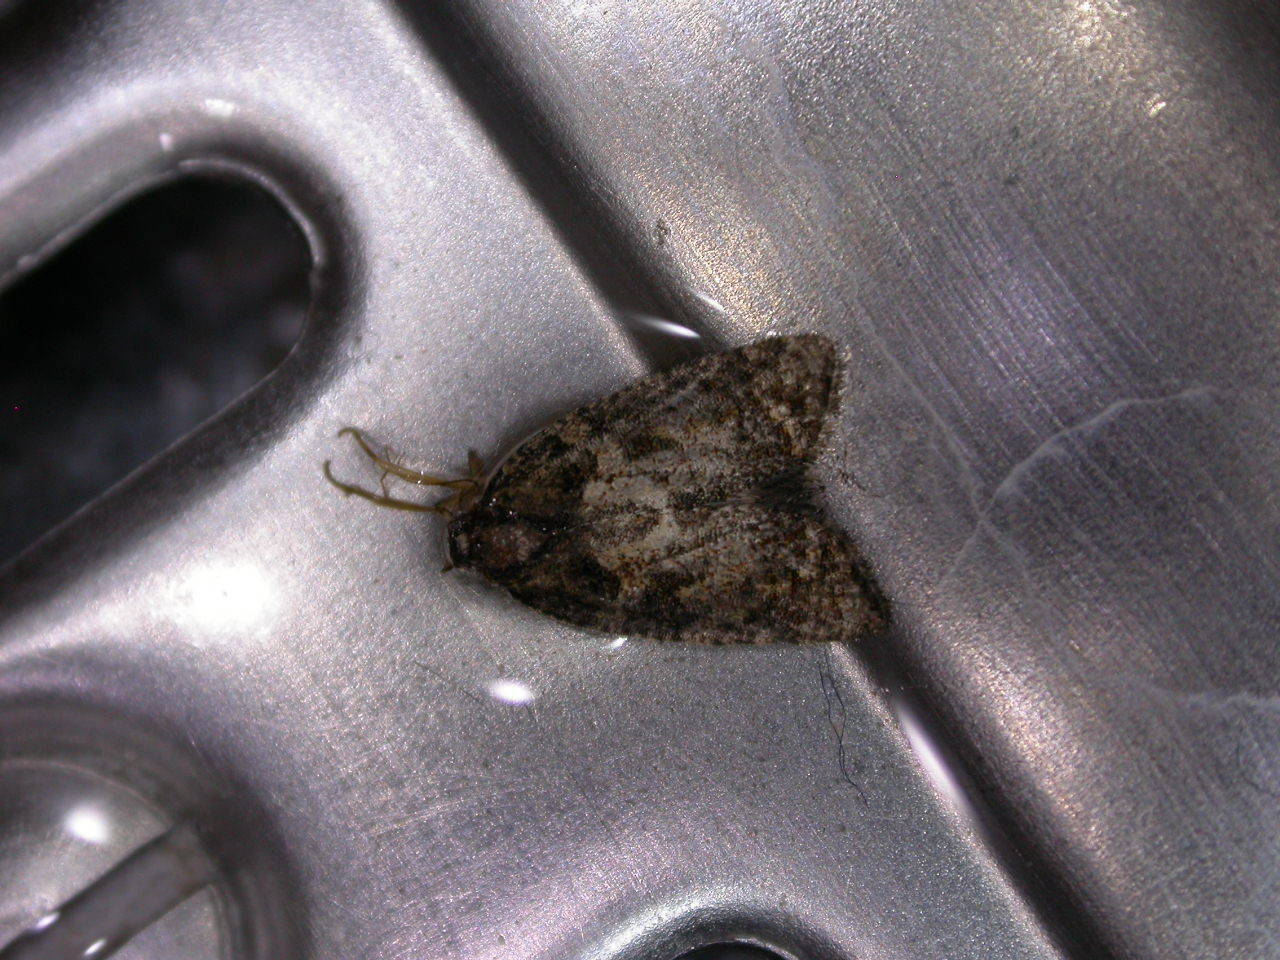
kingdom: Animalia
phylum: Arthropoda
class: Insecta
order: Lepidoptera
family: Tortricidae
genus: Capua
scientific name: Capua intractana
